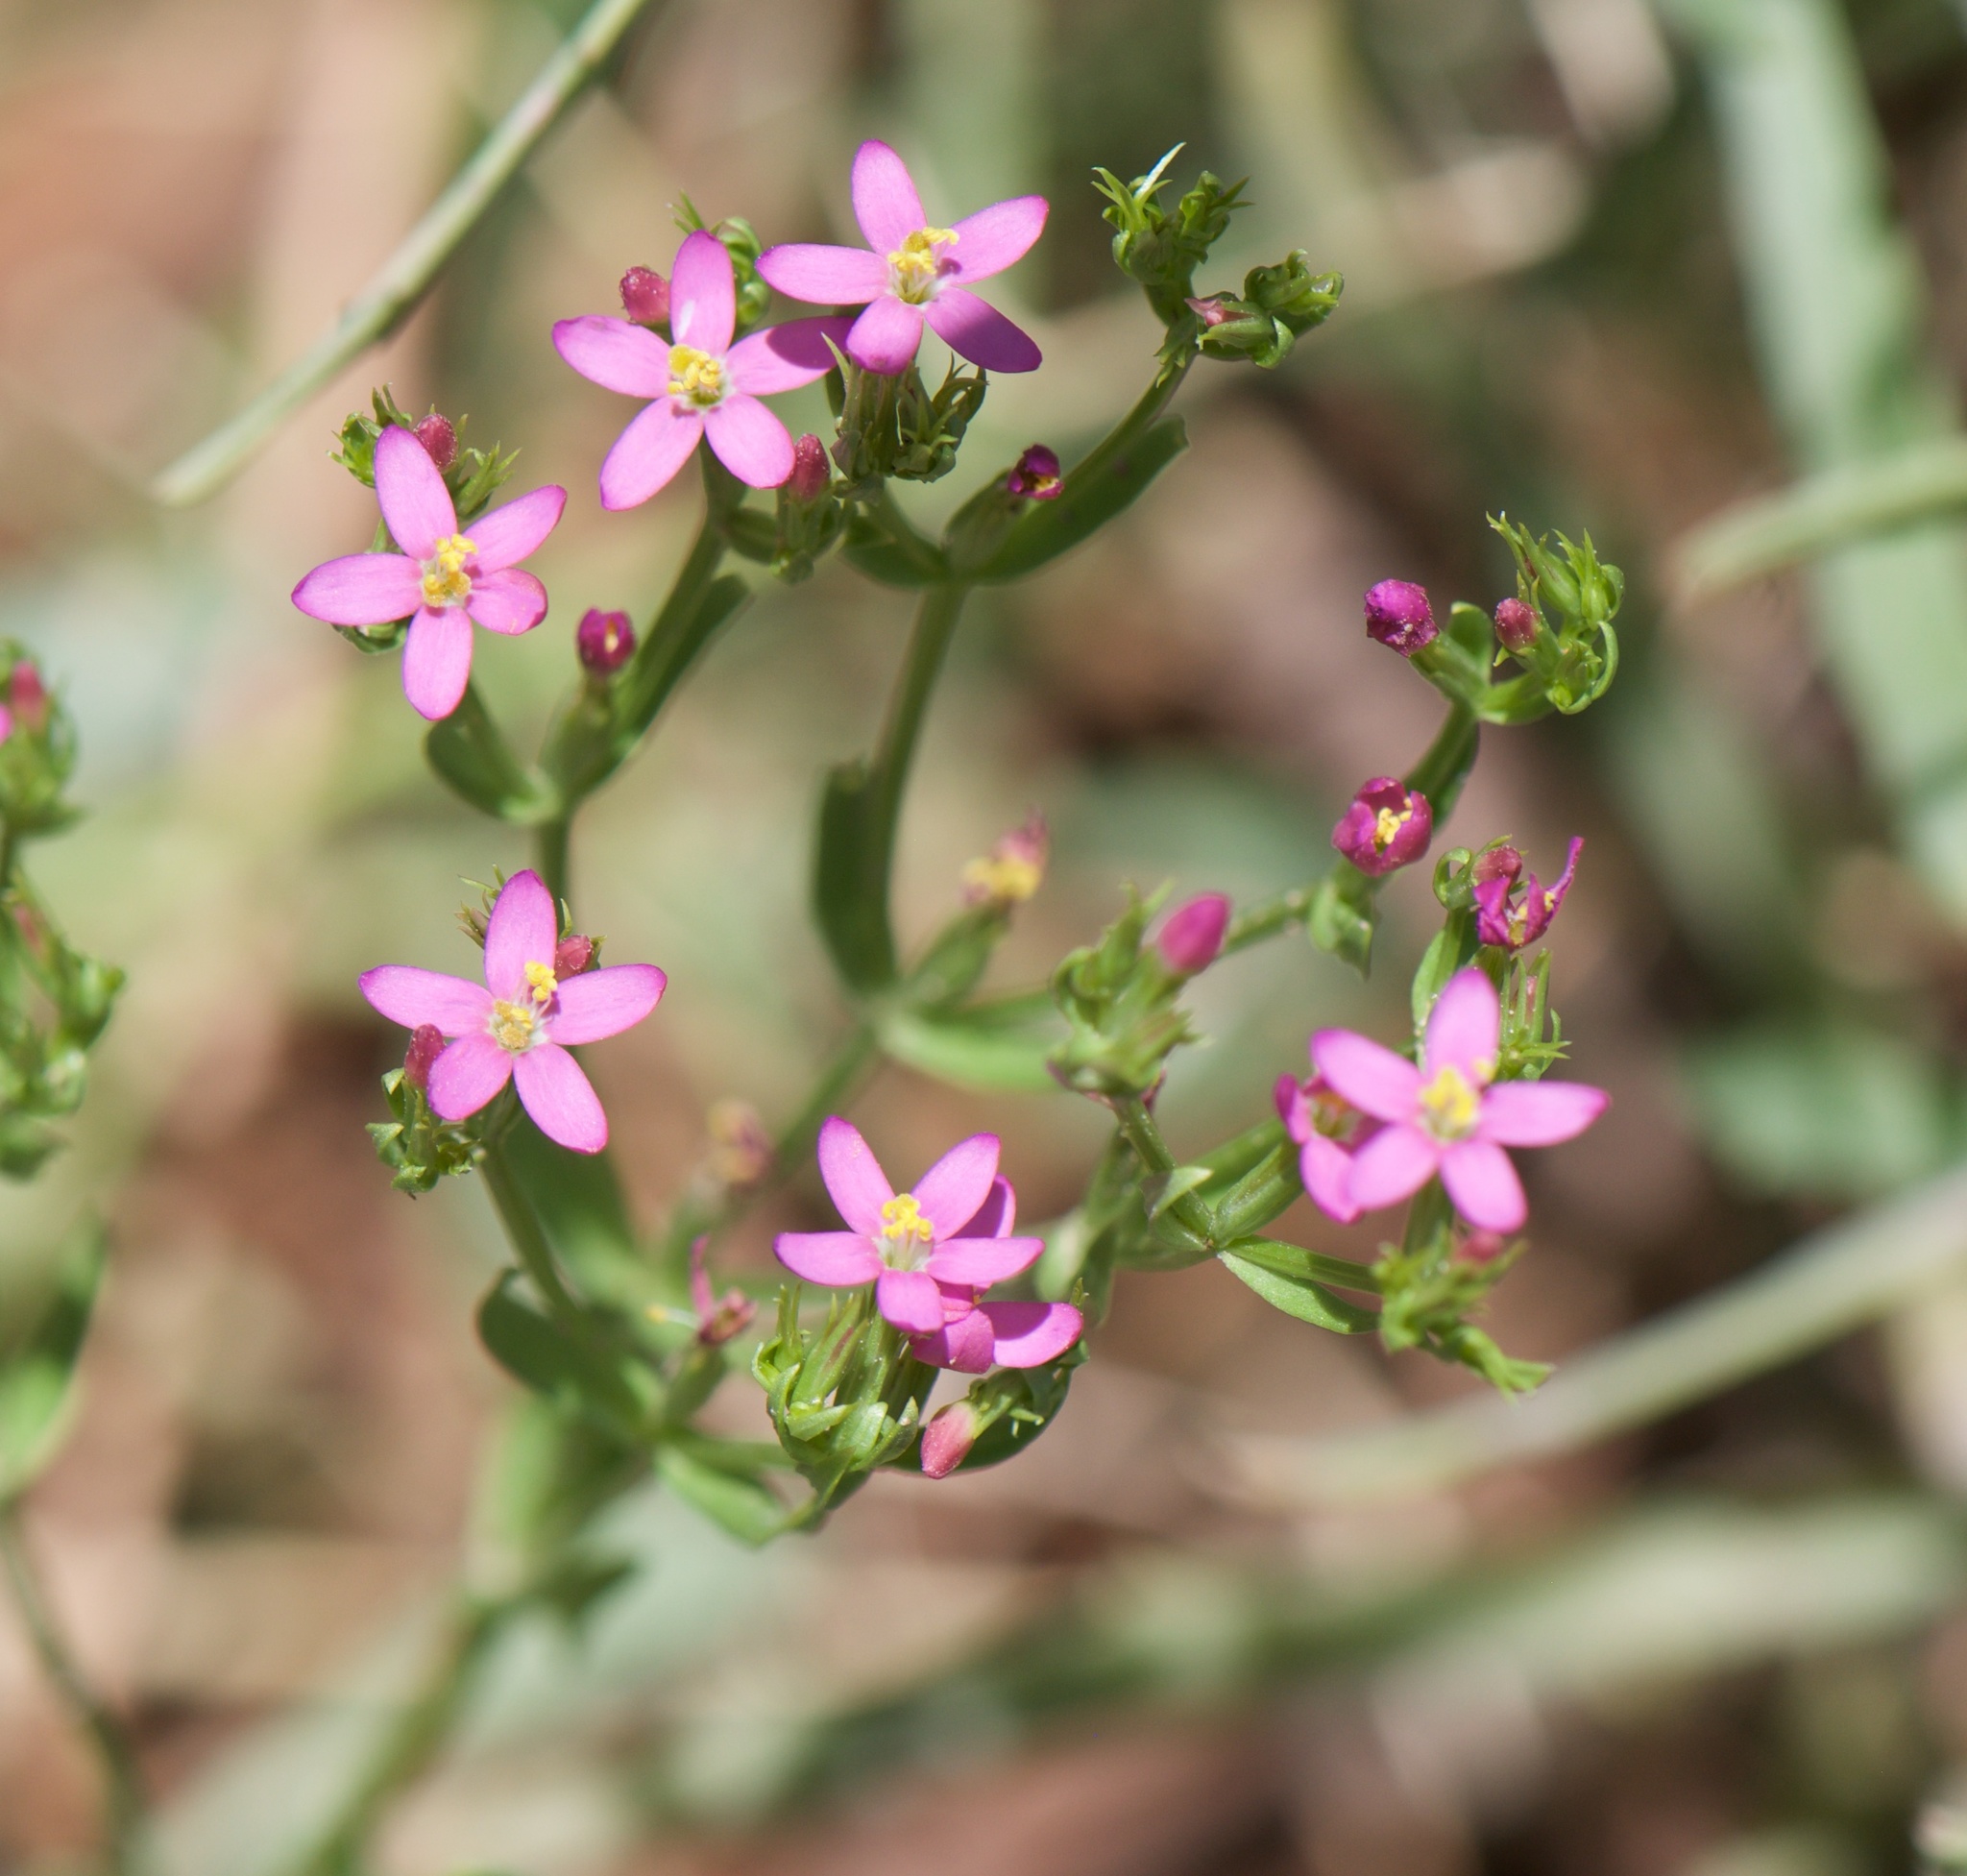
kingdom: Plantae
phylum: Tracheophyta
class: Magnoliopsida
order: Gentianales
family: Gentianaceae
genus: Centaurium
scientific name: Centaurium pulchellum
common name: Lesser centaury
